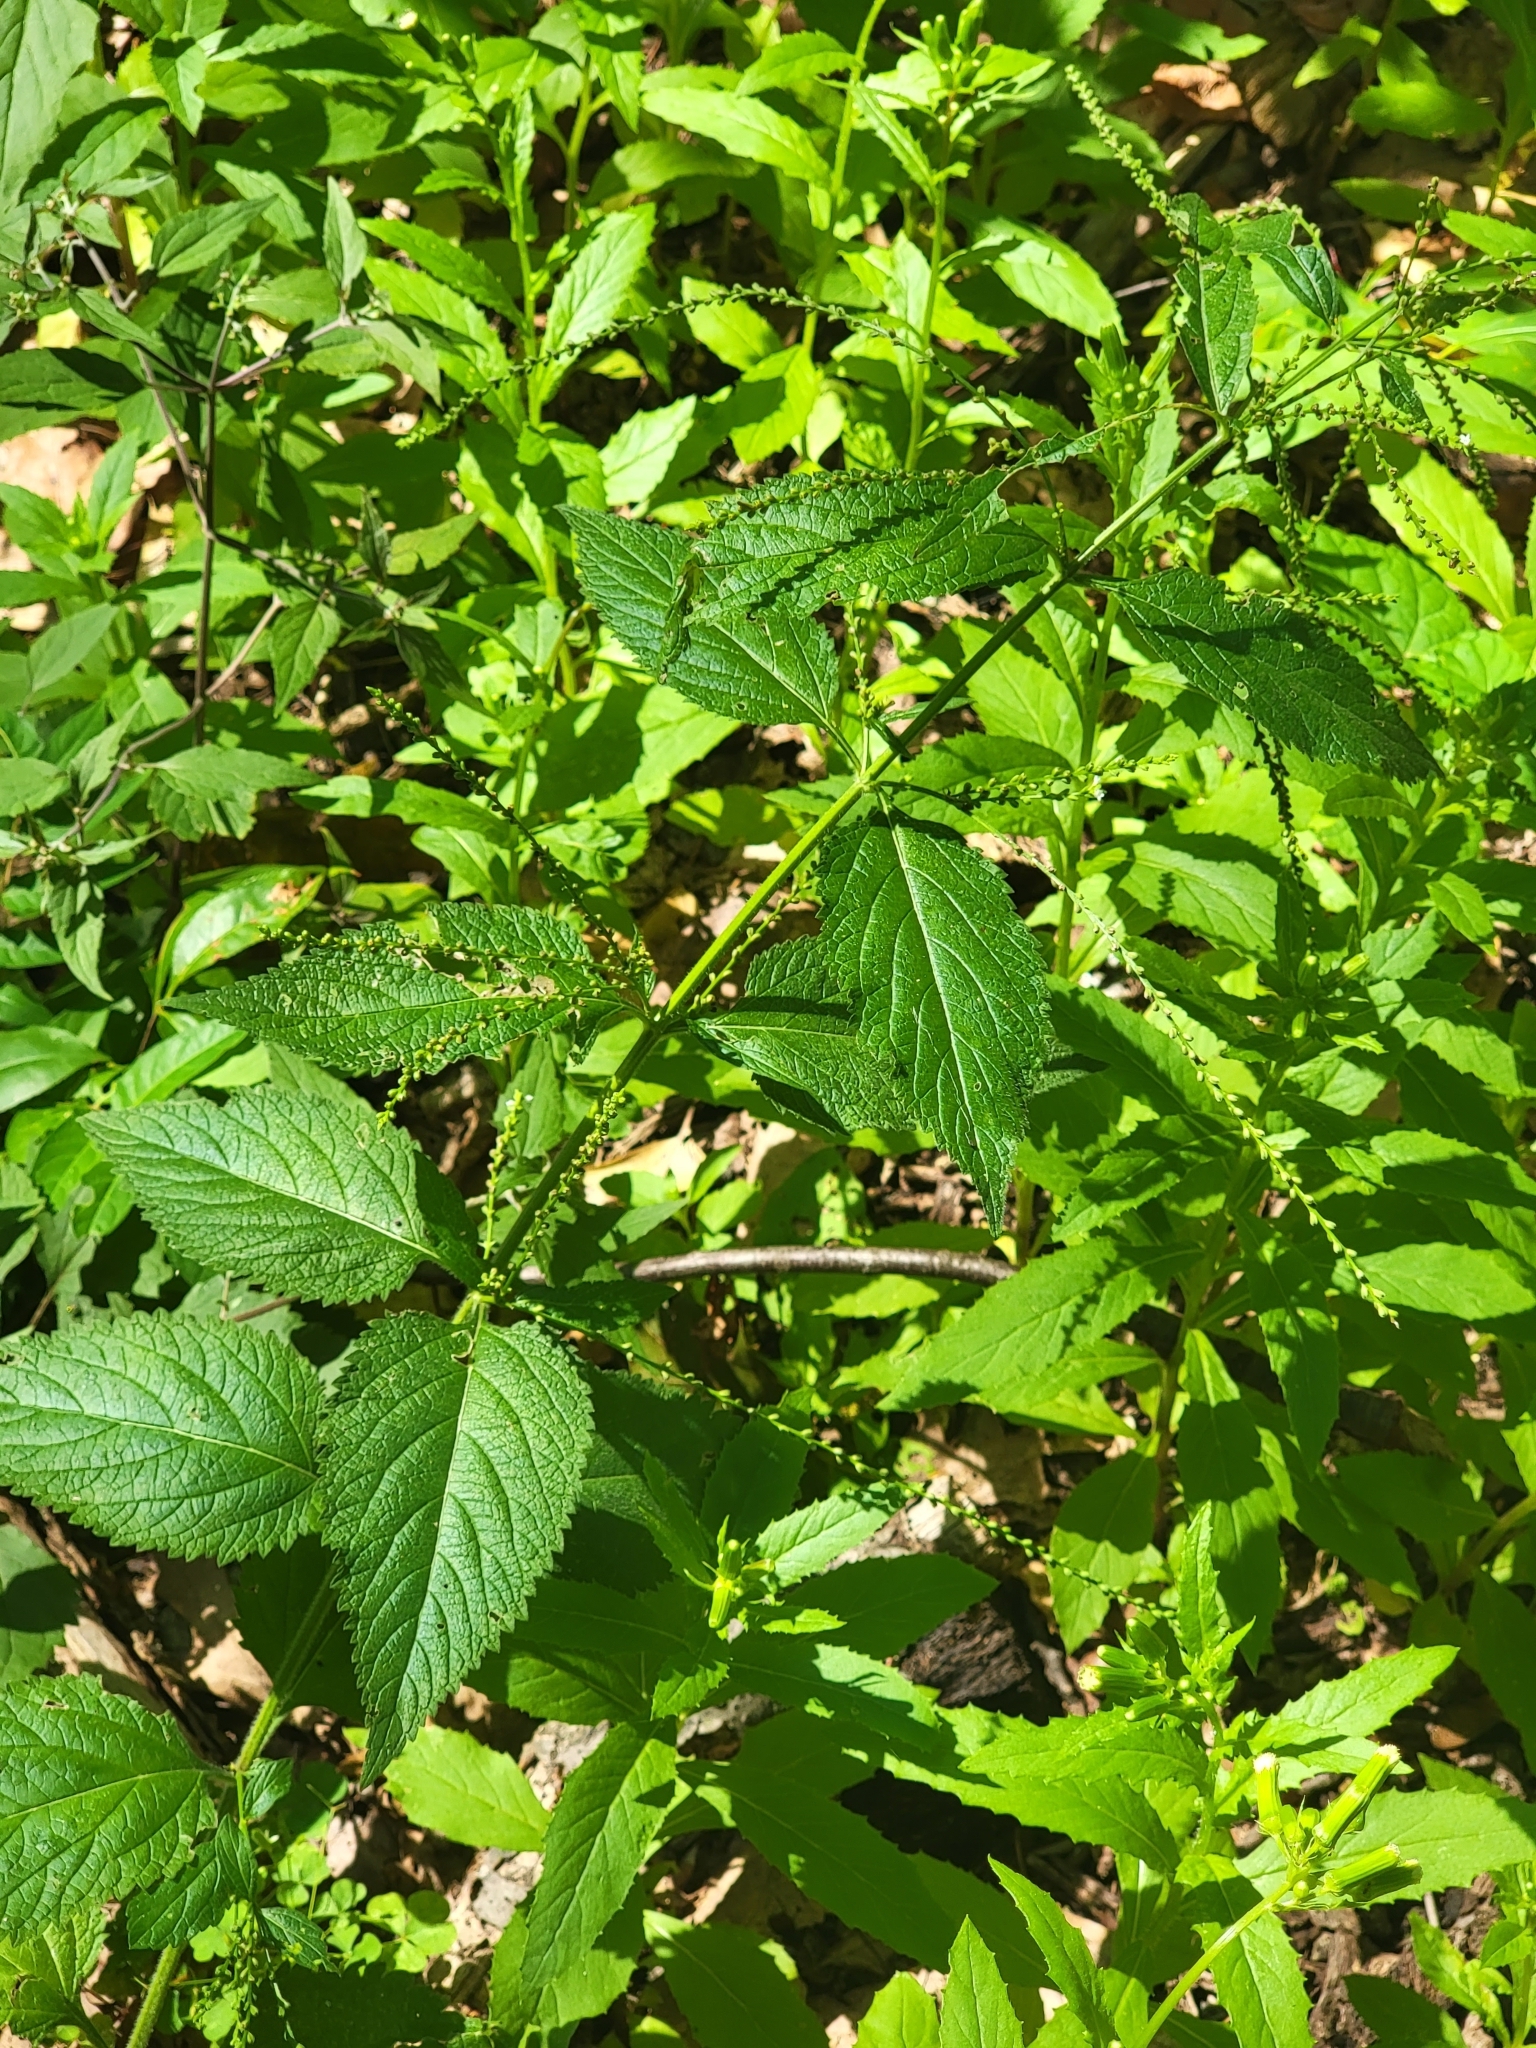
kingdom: Plantae
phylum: Tracheophyta
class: Magnoliopsida
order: Lamiales
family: Verbenaceae
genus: Verbena
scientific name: Verbena urticifolia
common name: Nettle-leaved vervain
